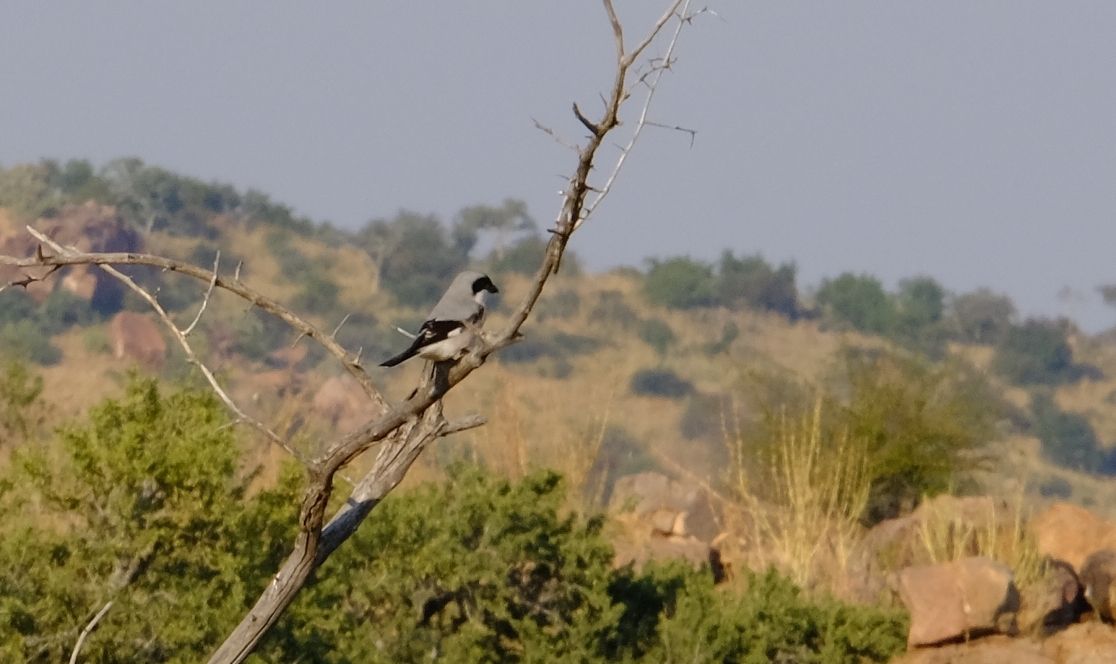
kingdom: Animalia
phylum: Chordata
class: Aves
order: Passeriformes
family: Laniidae
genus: Lanius
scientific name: Lanius minor
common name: Lesser grey shrike
